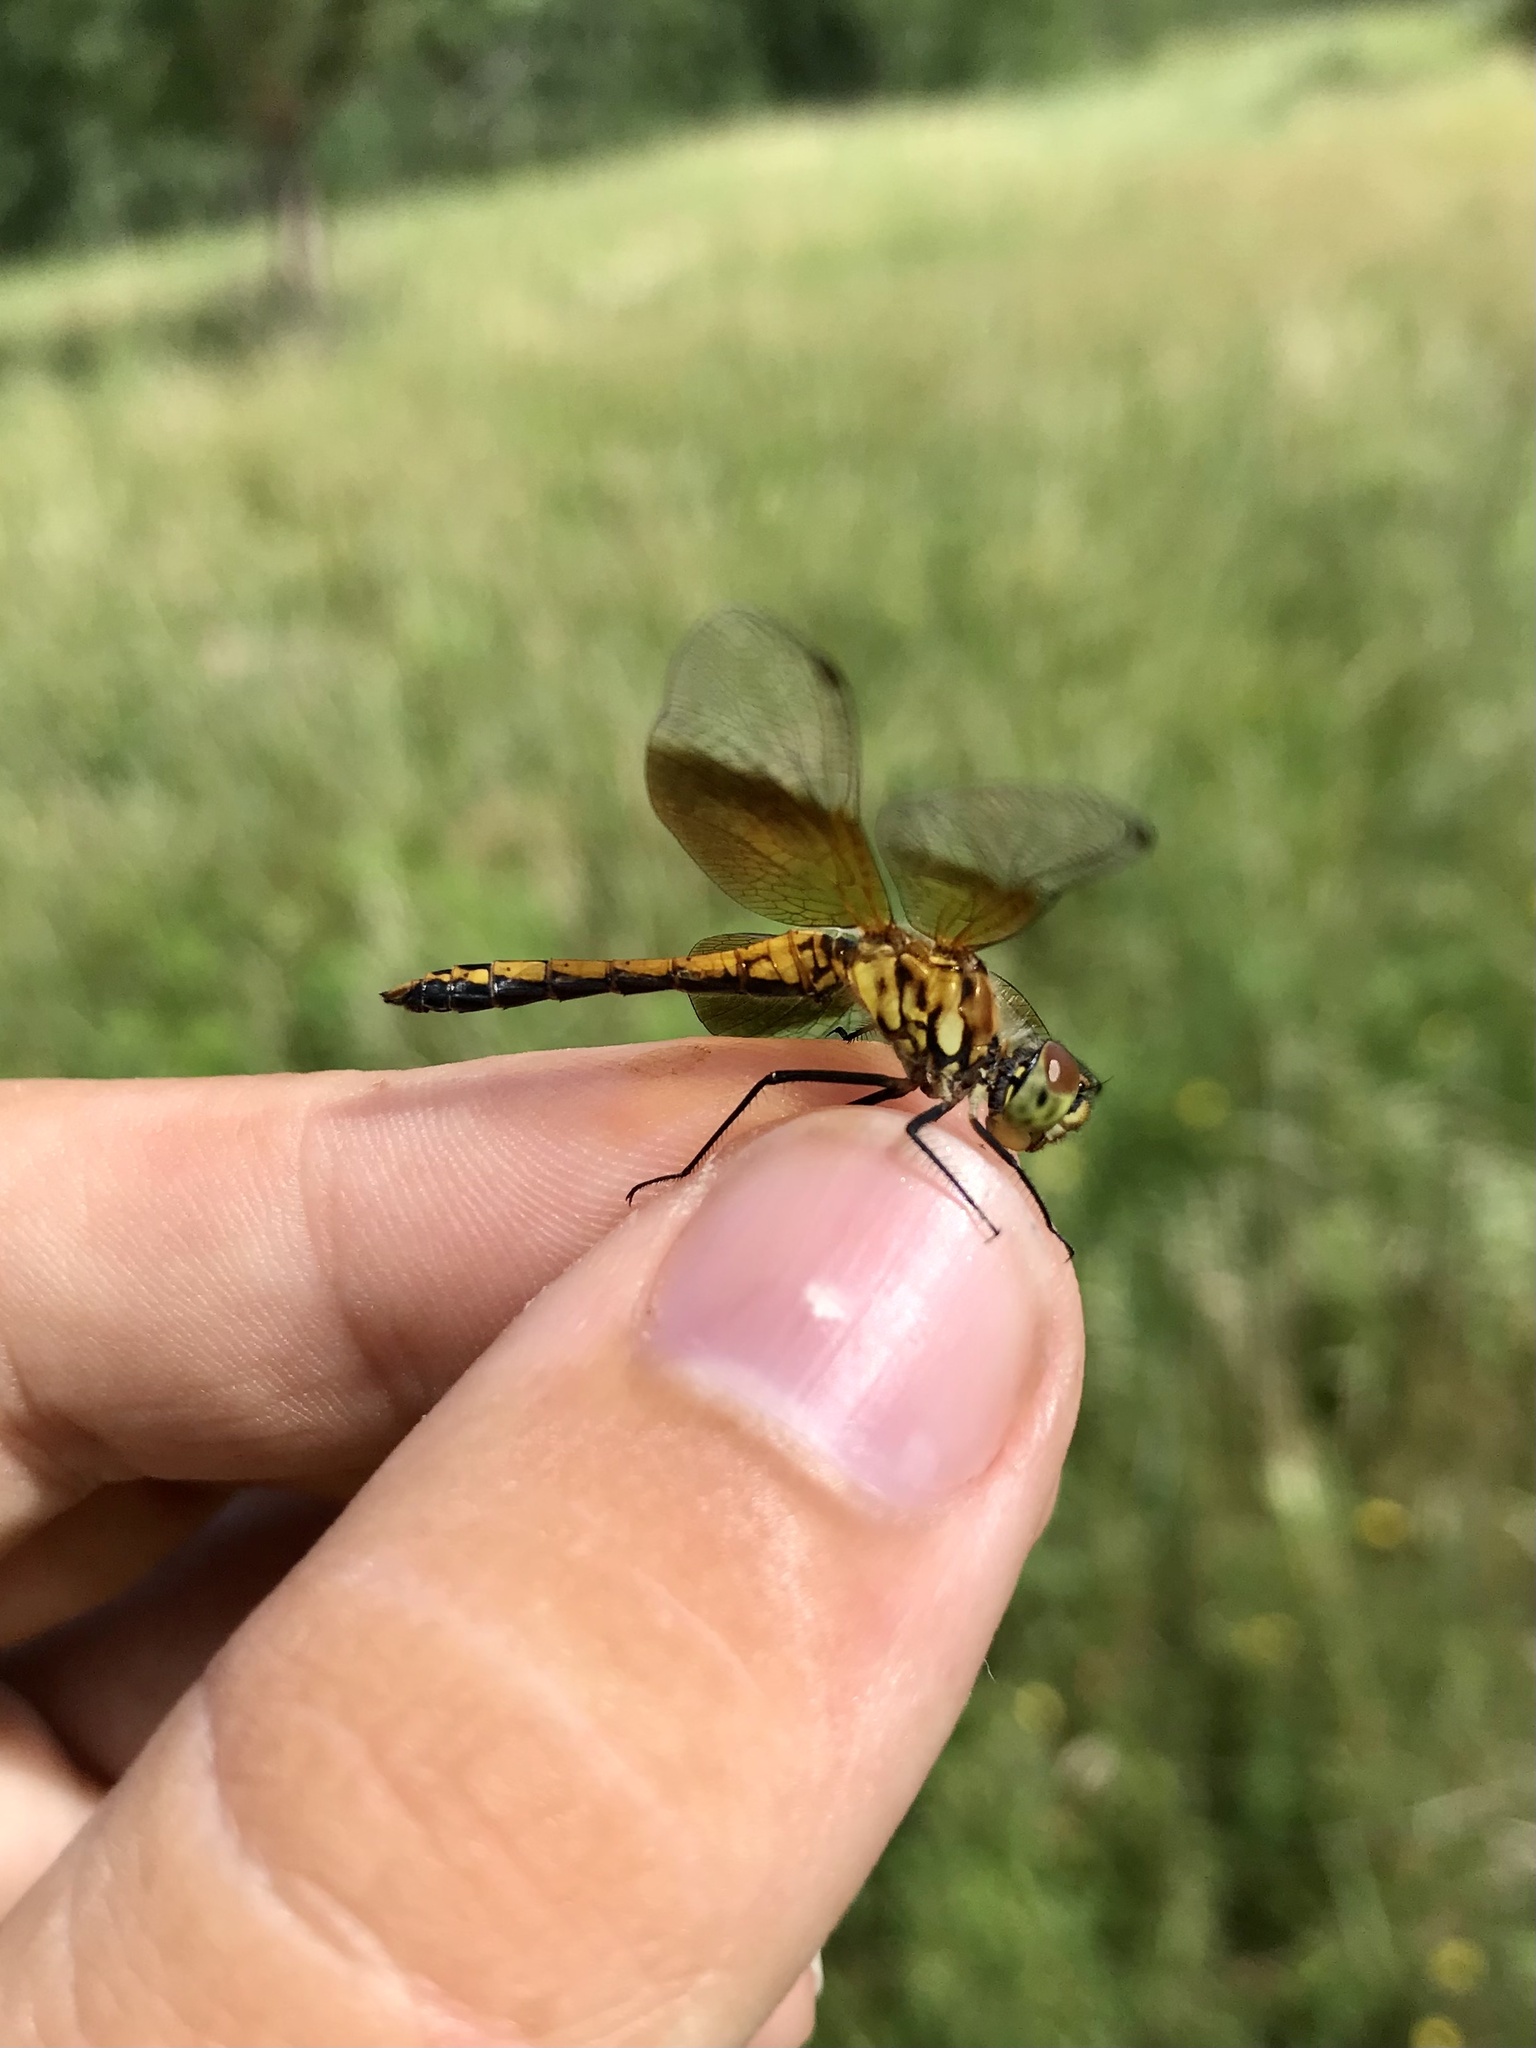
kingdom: Animalia
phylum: Arthropoda
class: Insecta
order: Odonata
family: Libellulidae
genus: Sympetrum
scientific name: Sympetrum semicinctum
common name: Band-winged meadowhawk
